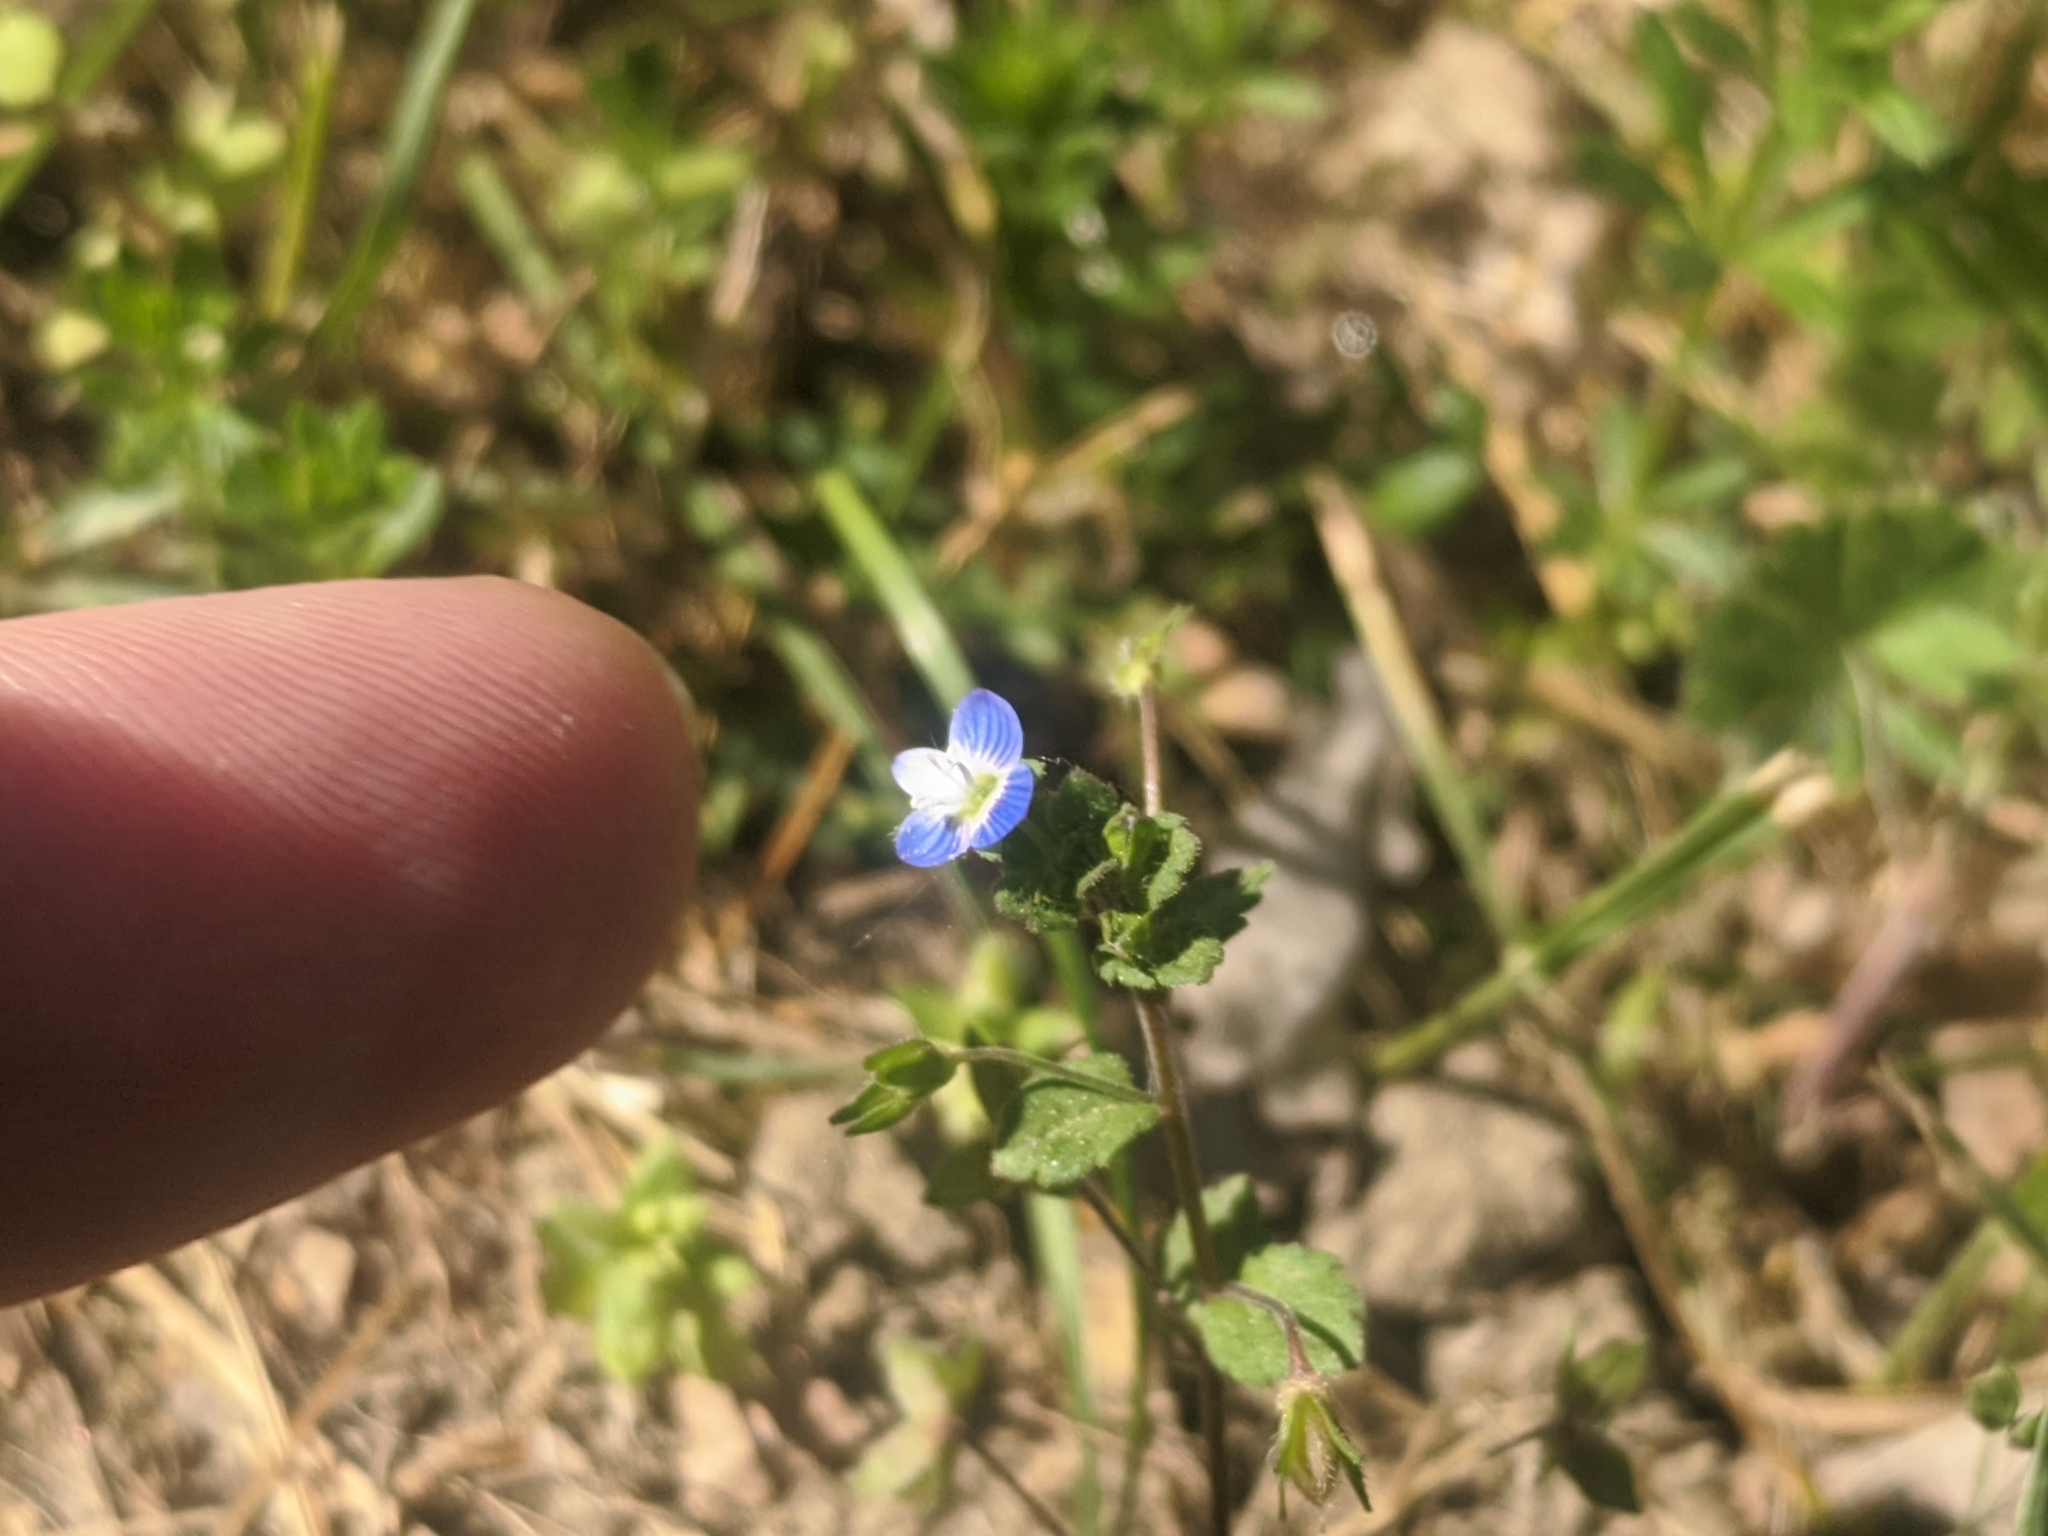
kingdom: Plantae
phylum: Tracheophyta
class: Magnoliopsida
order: Lamiales
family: Plantaginaceae
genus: Veronica
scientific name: Veronica persica
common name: Common field-speedwell
